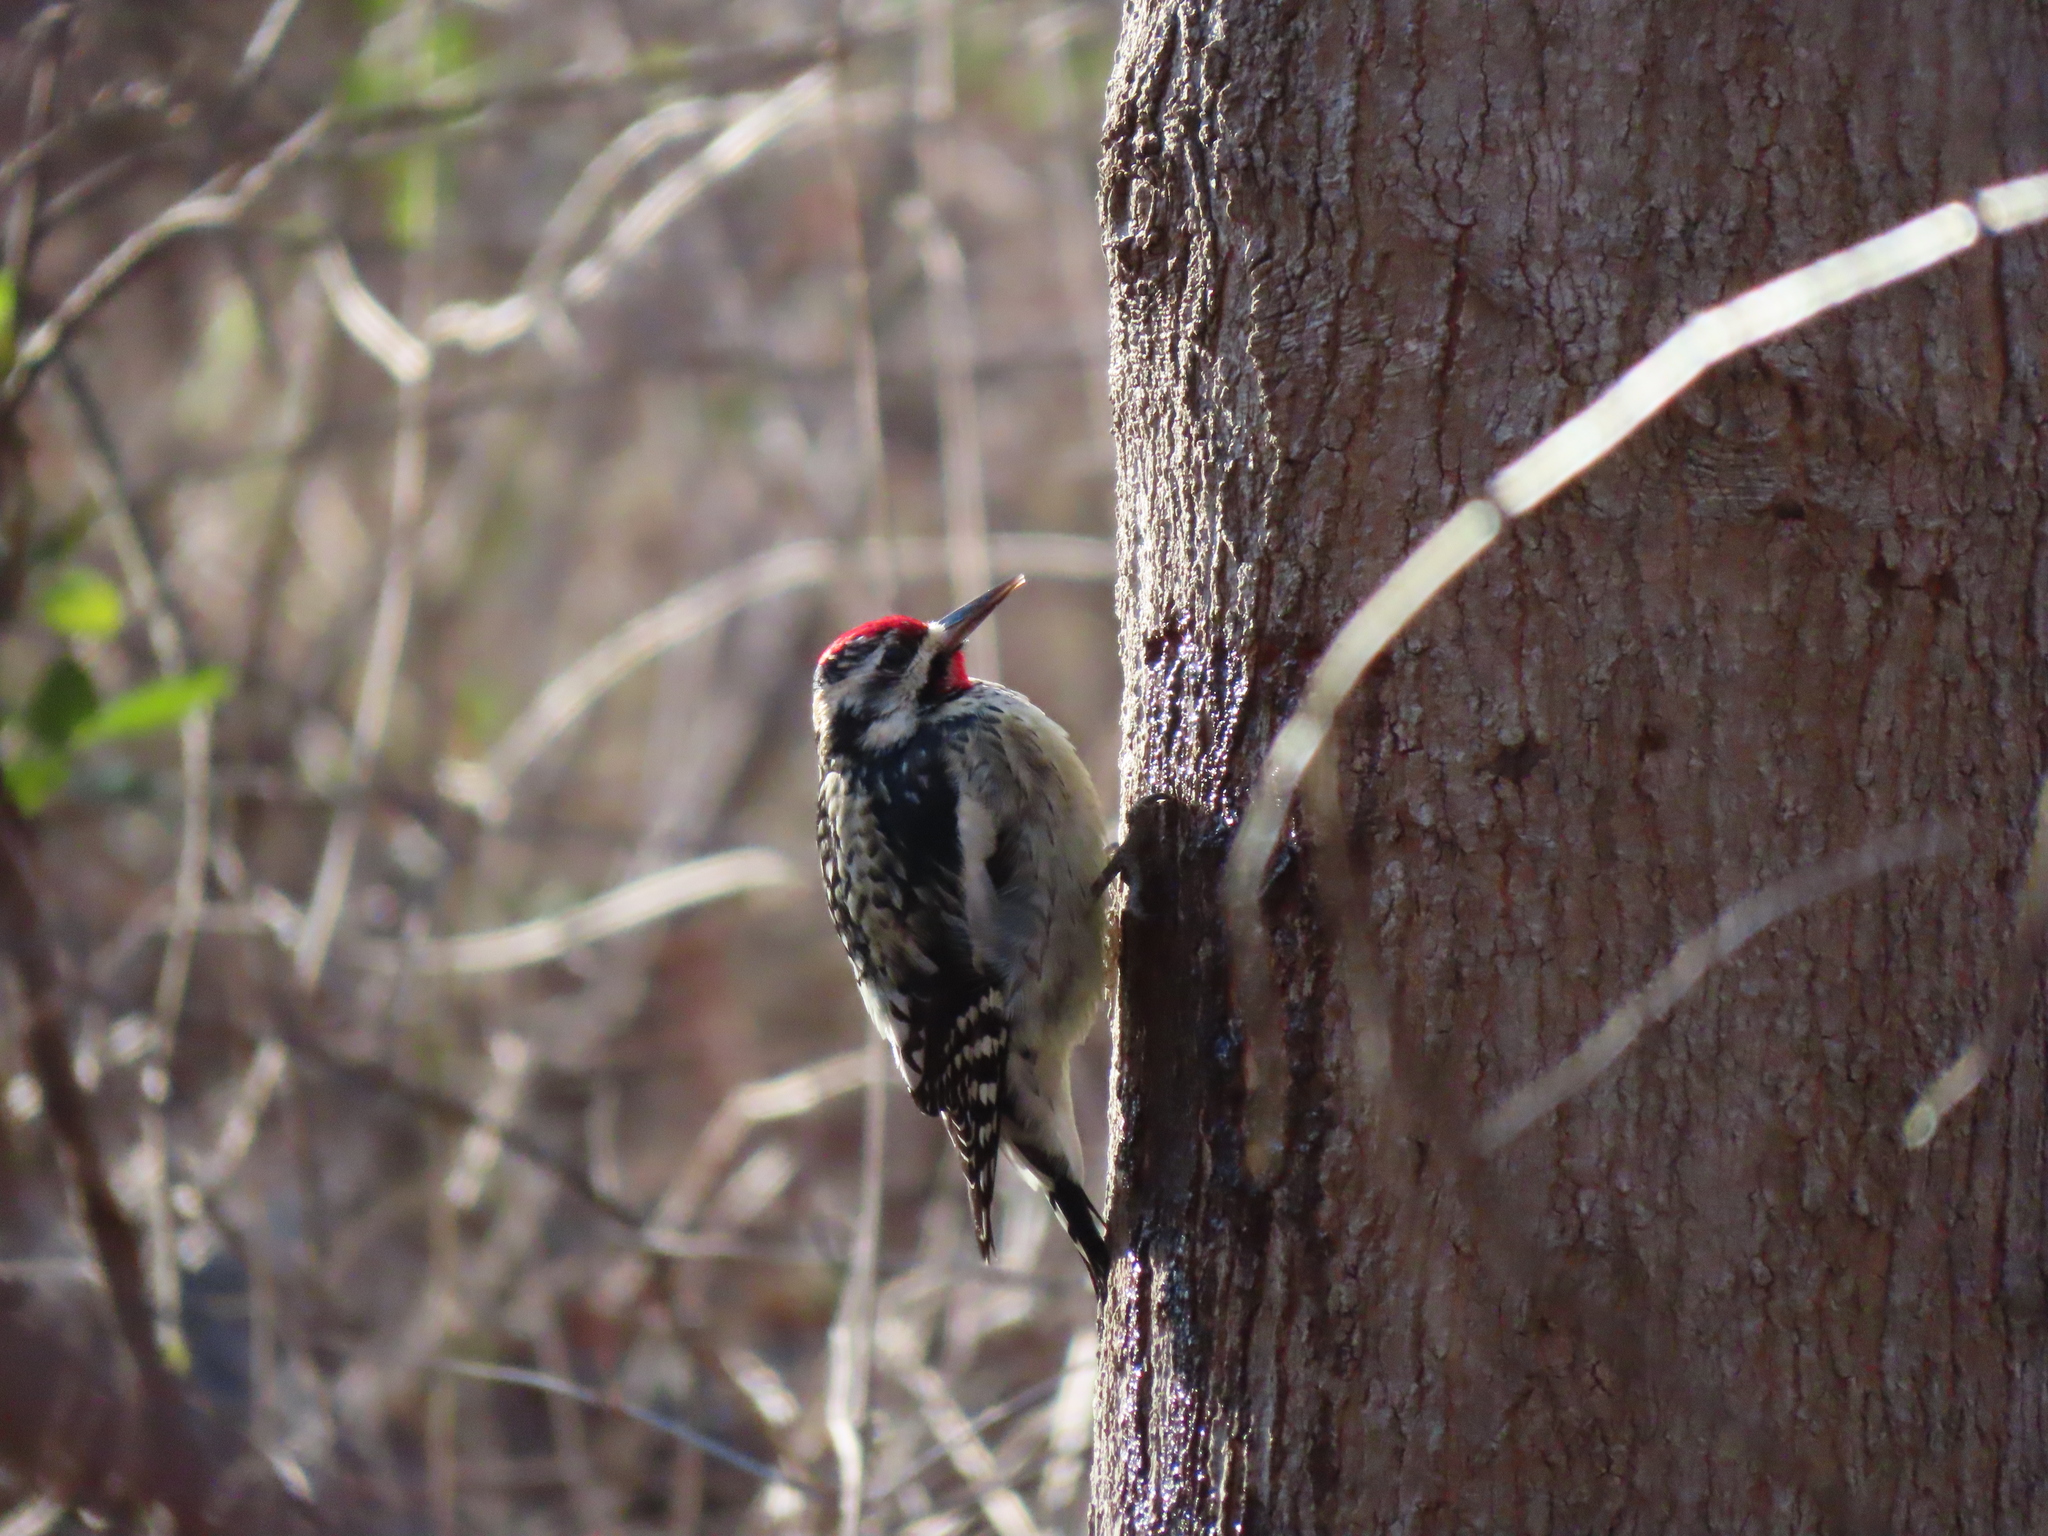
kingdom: Animalia
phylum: Chordata
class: Aves
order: Piciformes
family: Picidae
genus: Sphyrapicus
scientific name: Sphyrapicus varius
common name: Yellow-bellied sapsucker
